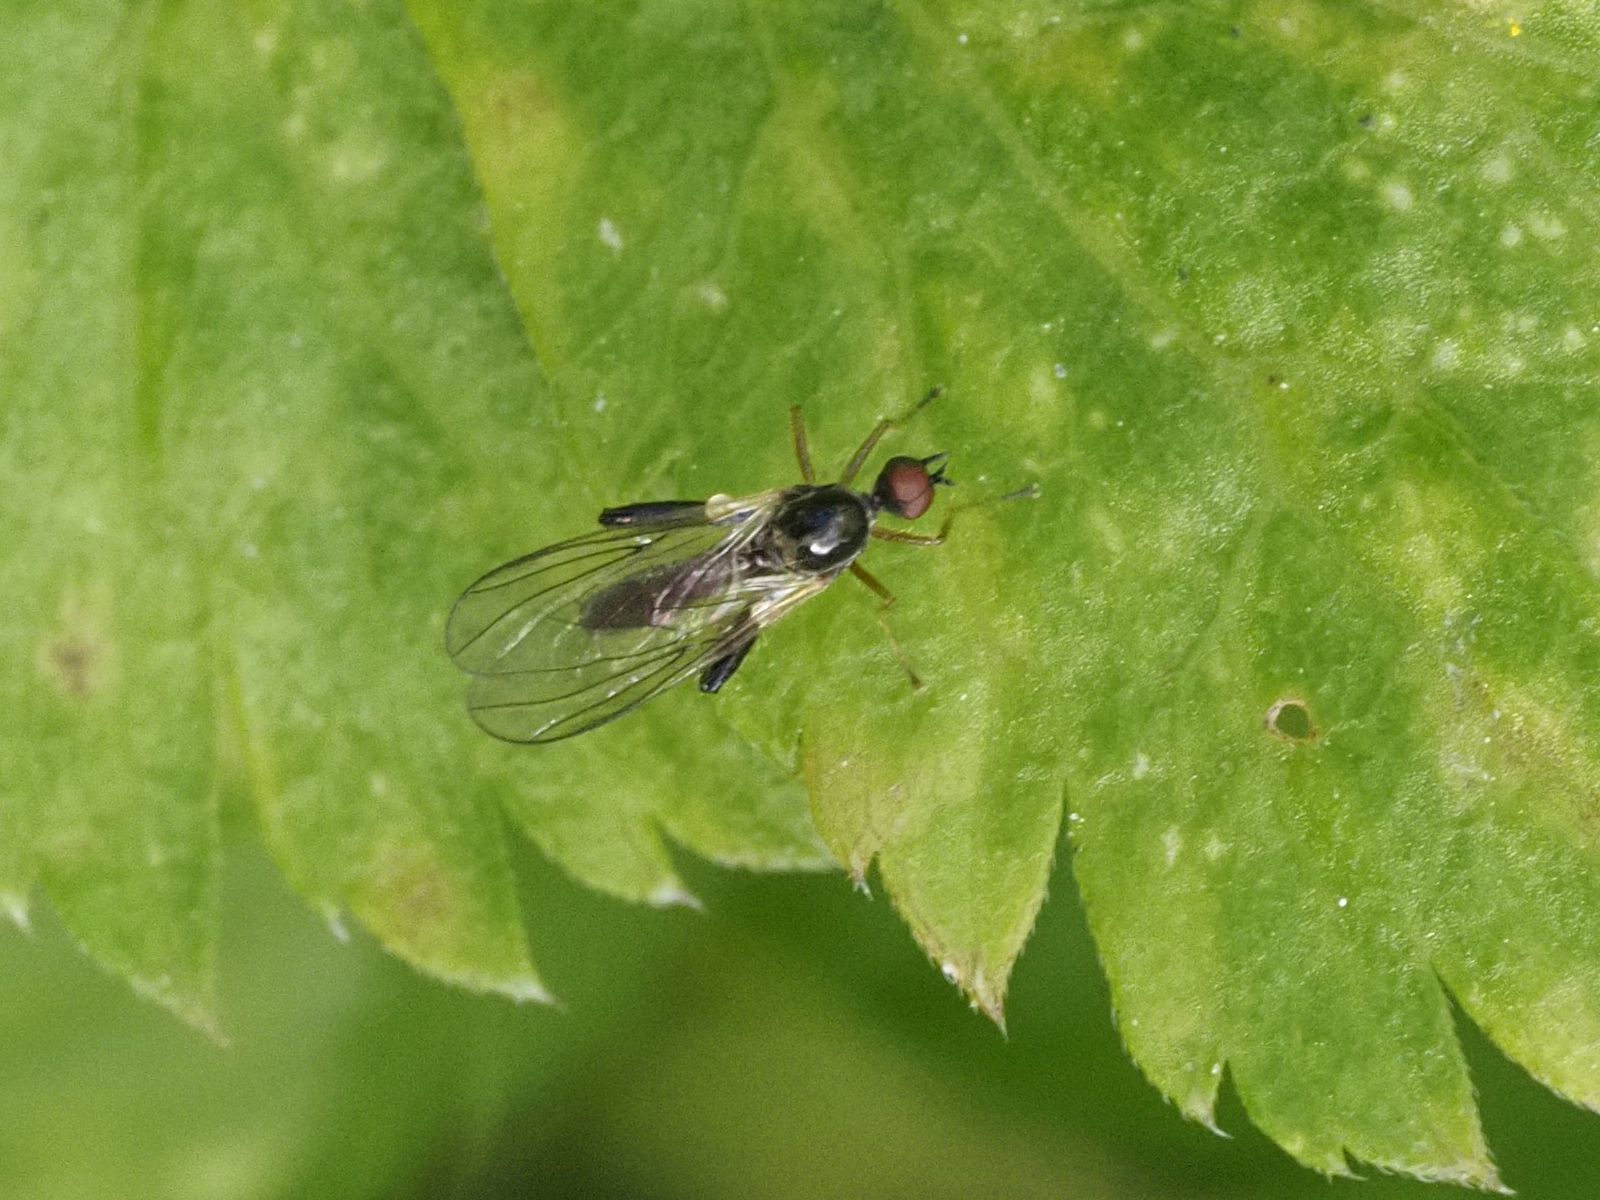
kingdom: Animalia
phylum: Arthropoda
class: Insecta
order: Diptera
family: Hybotidae
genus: Hybos
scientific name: Hybos femoratus
